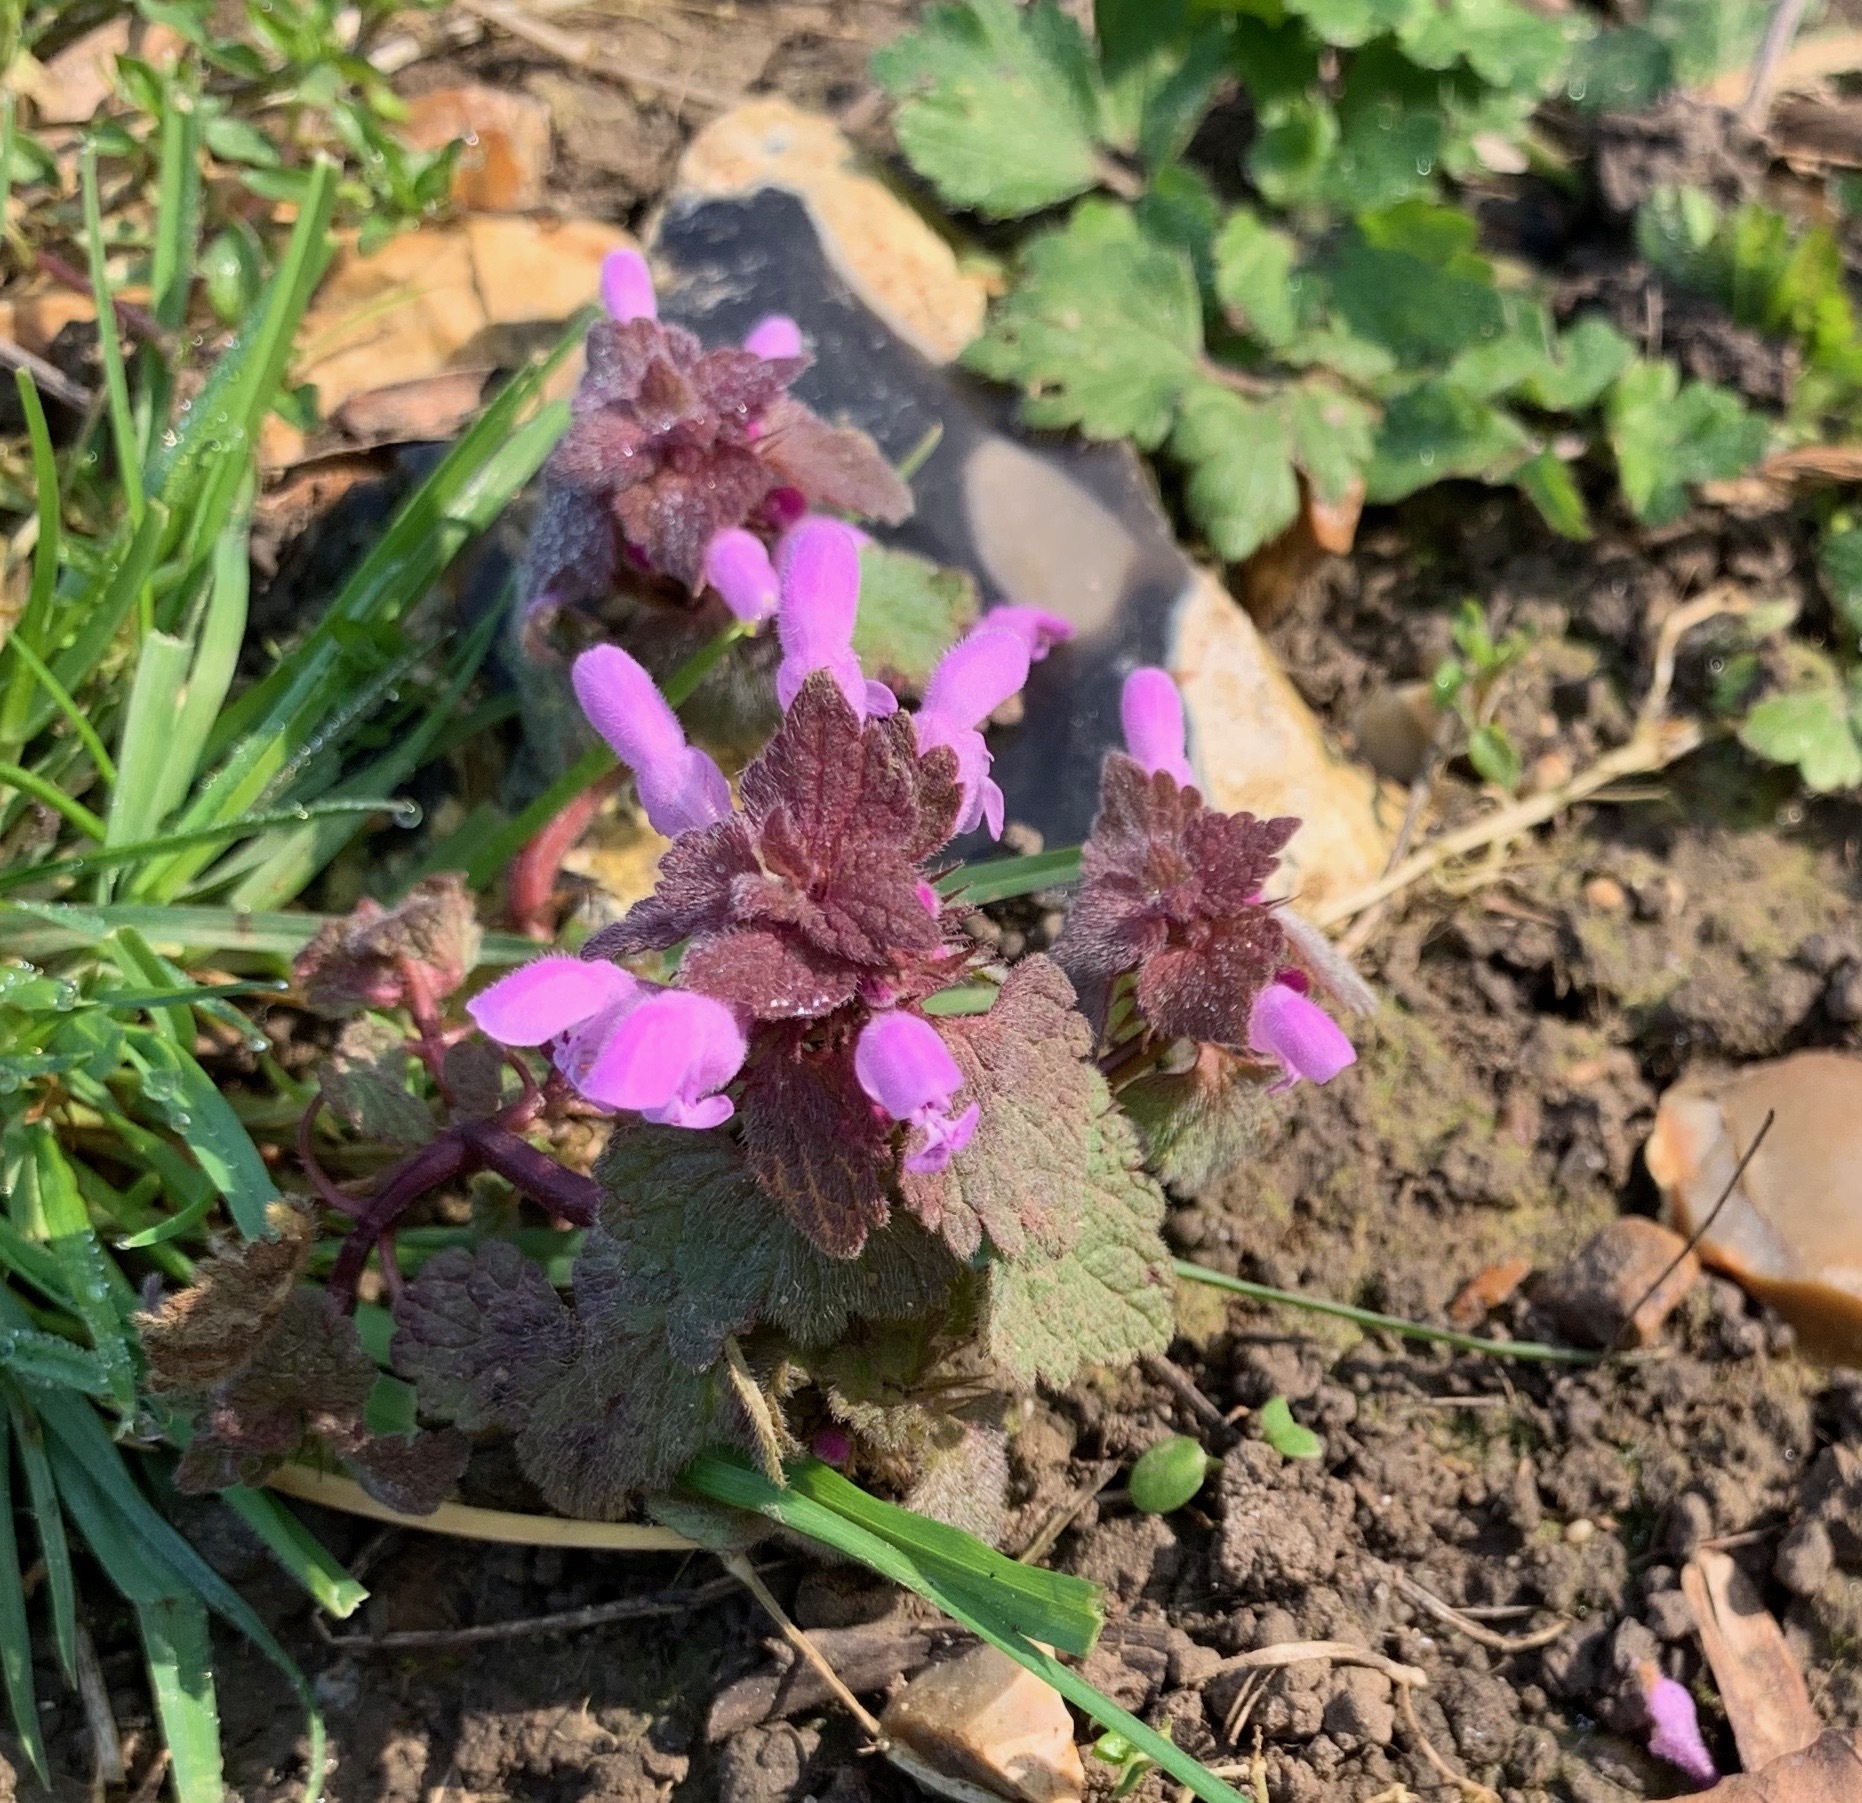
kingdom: Plantae
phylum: Tracheophyta
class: Magnoliopsida
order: Lamiales
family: Lamiaceae
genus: Lamium
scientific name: Lamium purpureum
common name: Red dead-nettle
